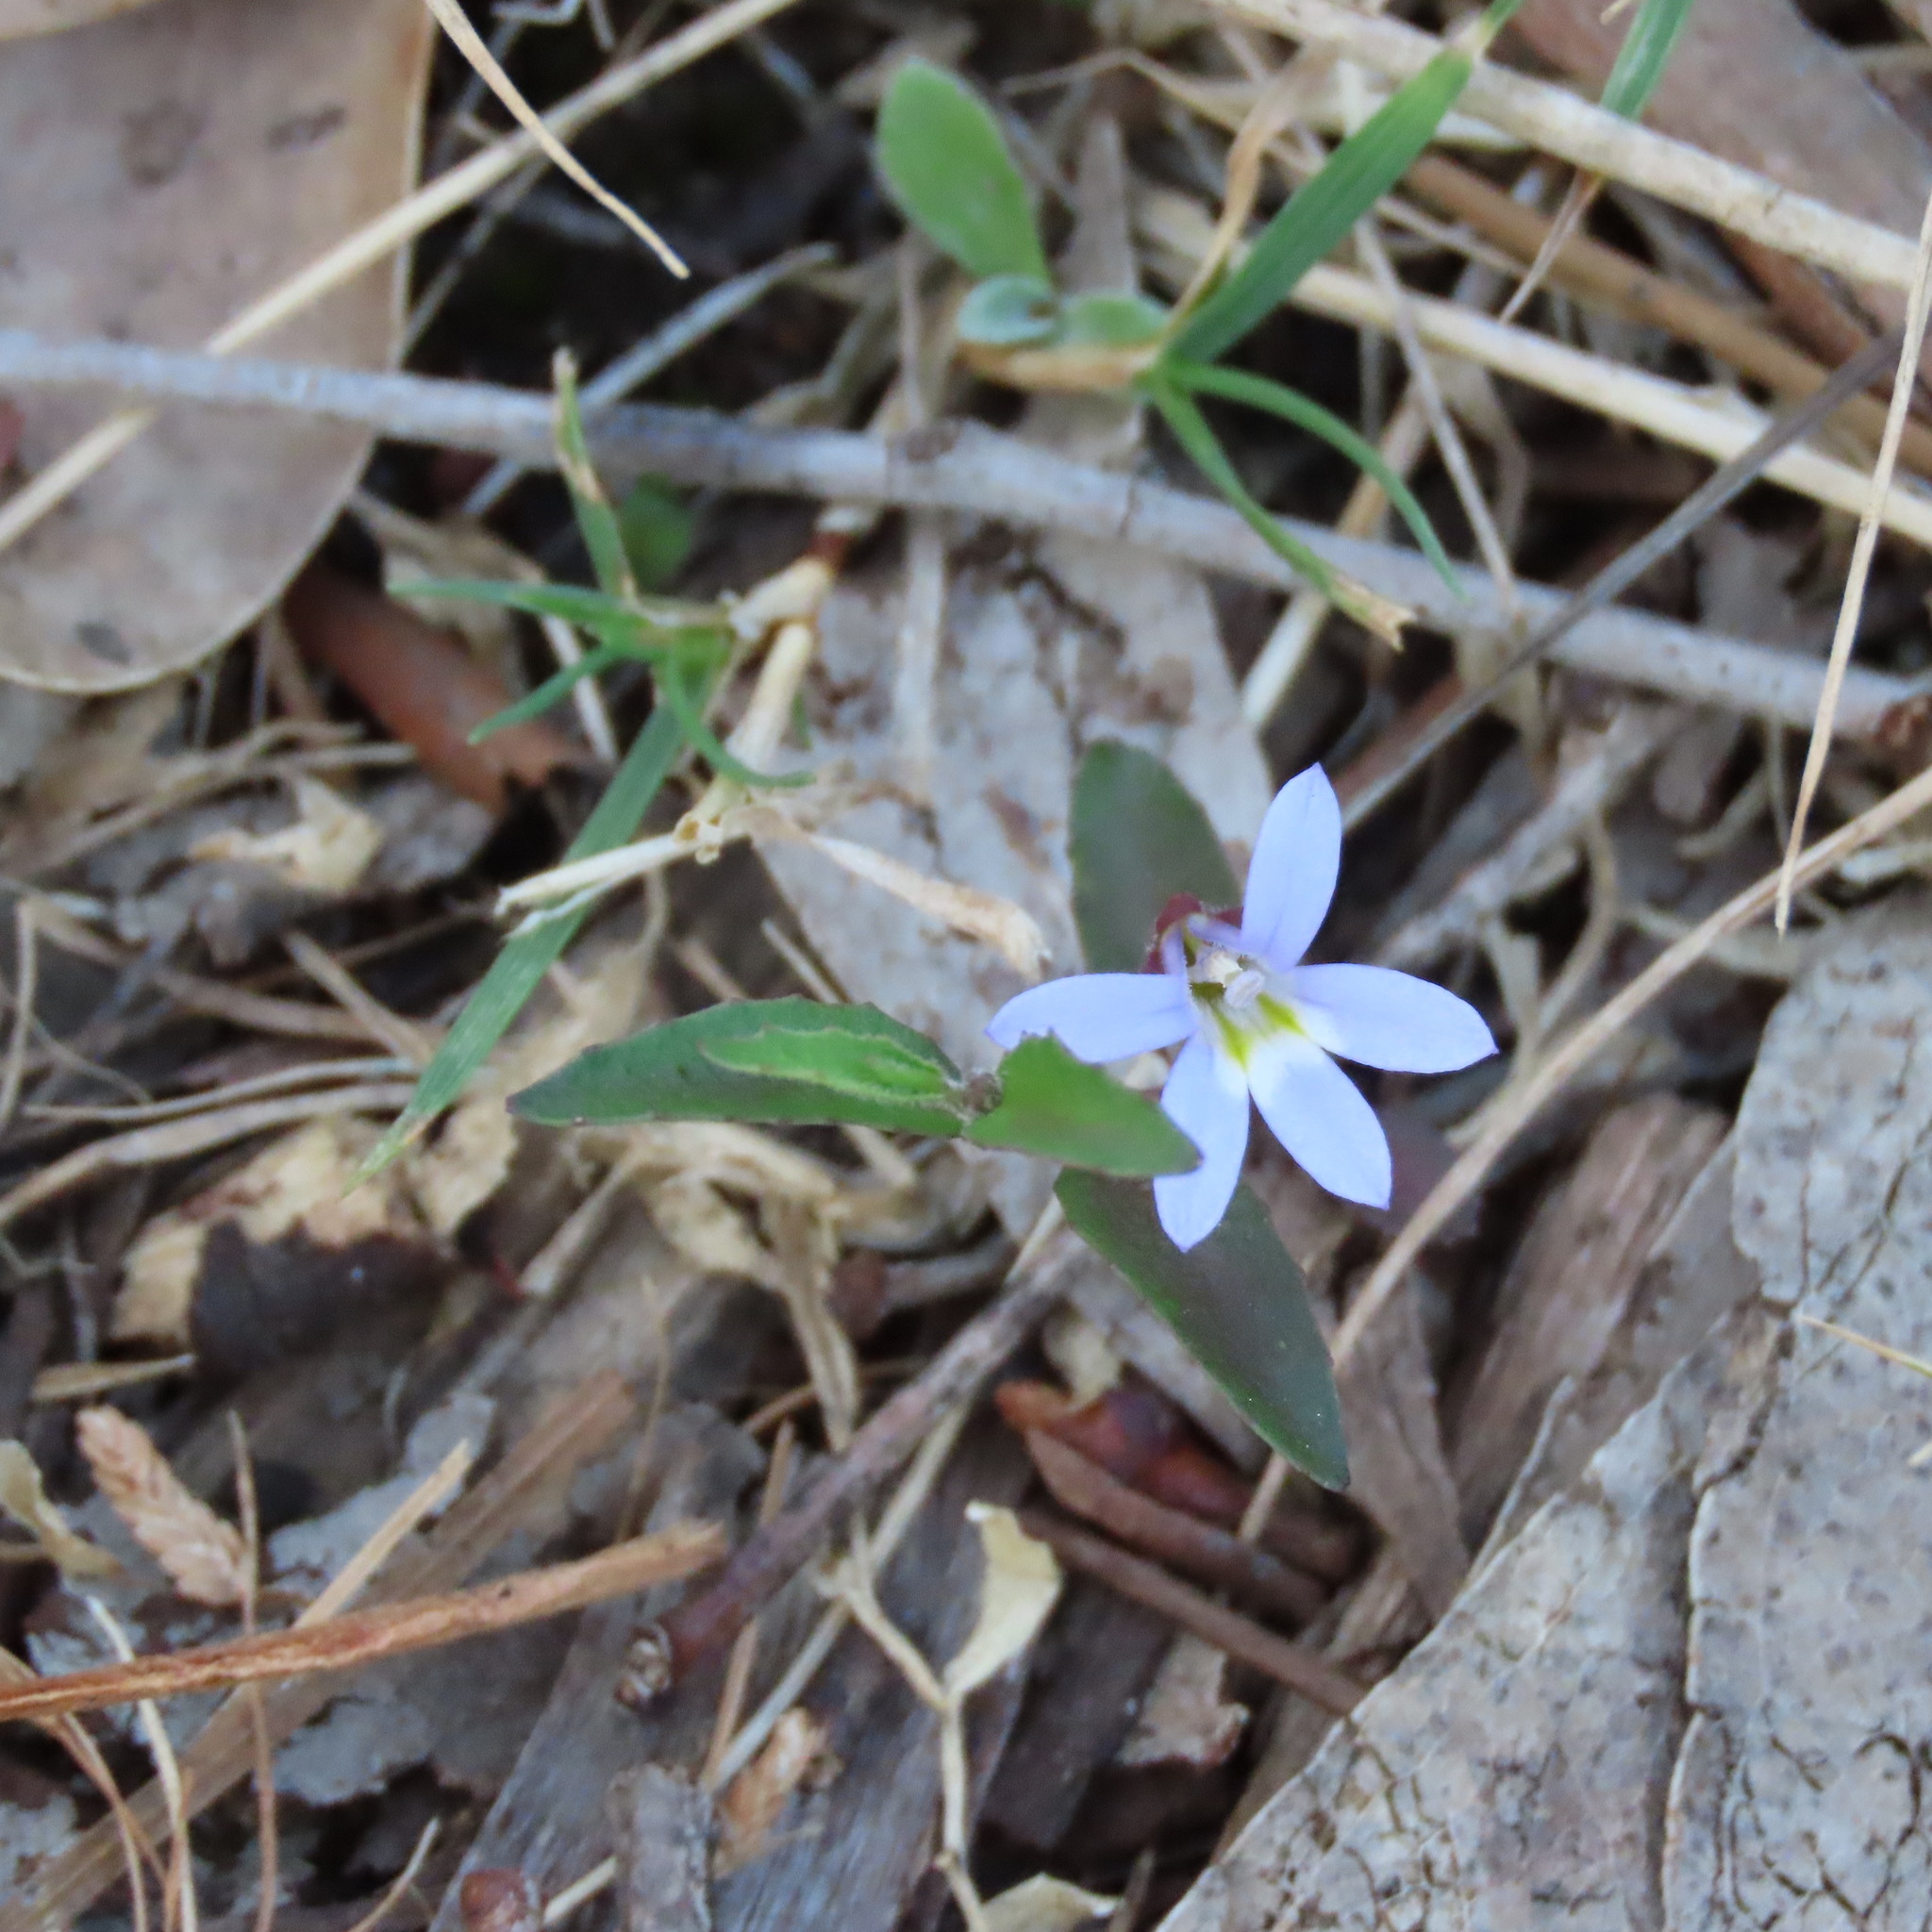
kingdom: Plantae
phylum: Tracheophyta
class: Magnoliopsida
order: Asterales
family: Campanulaceae
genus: Lobelia
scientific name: Lobelia pratioides
